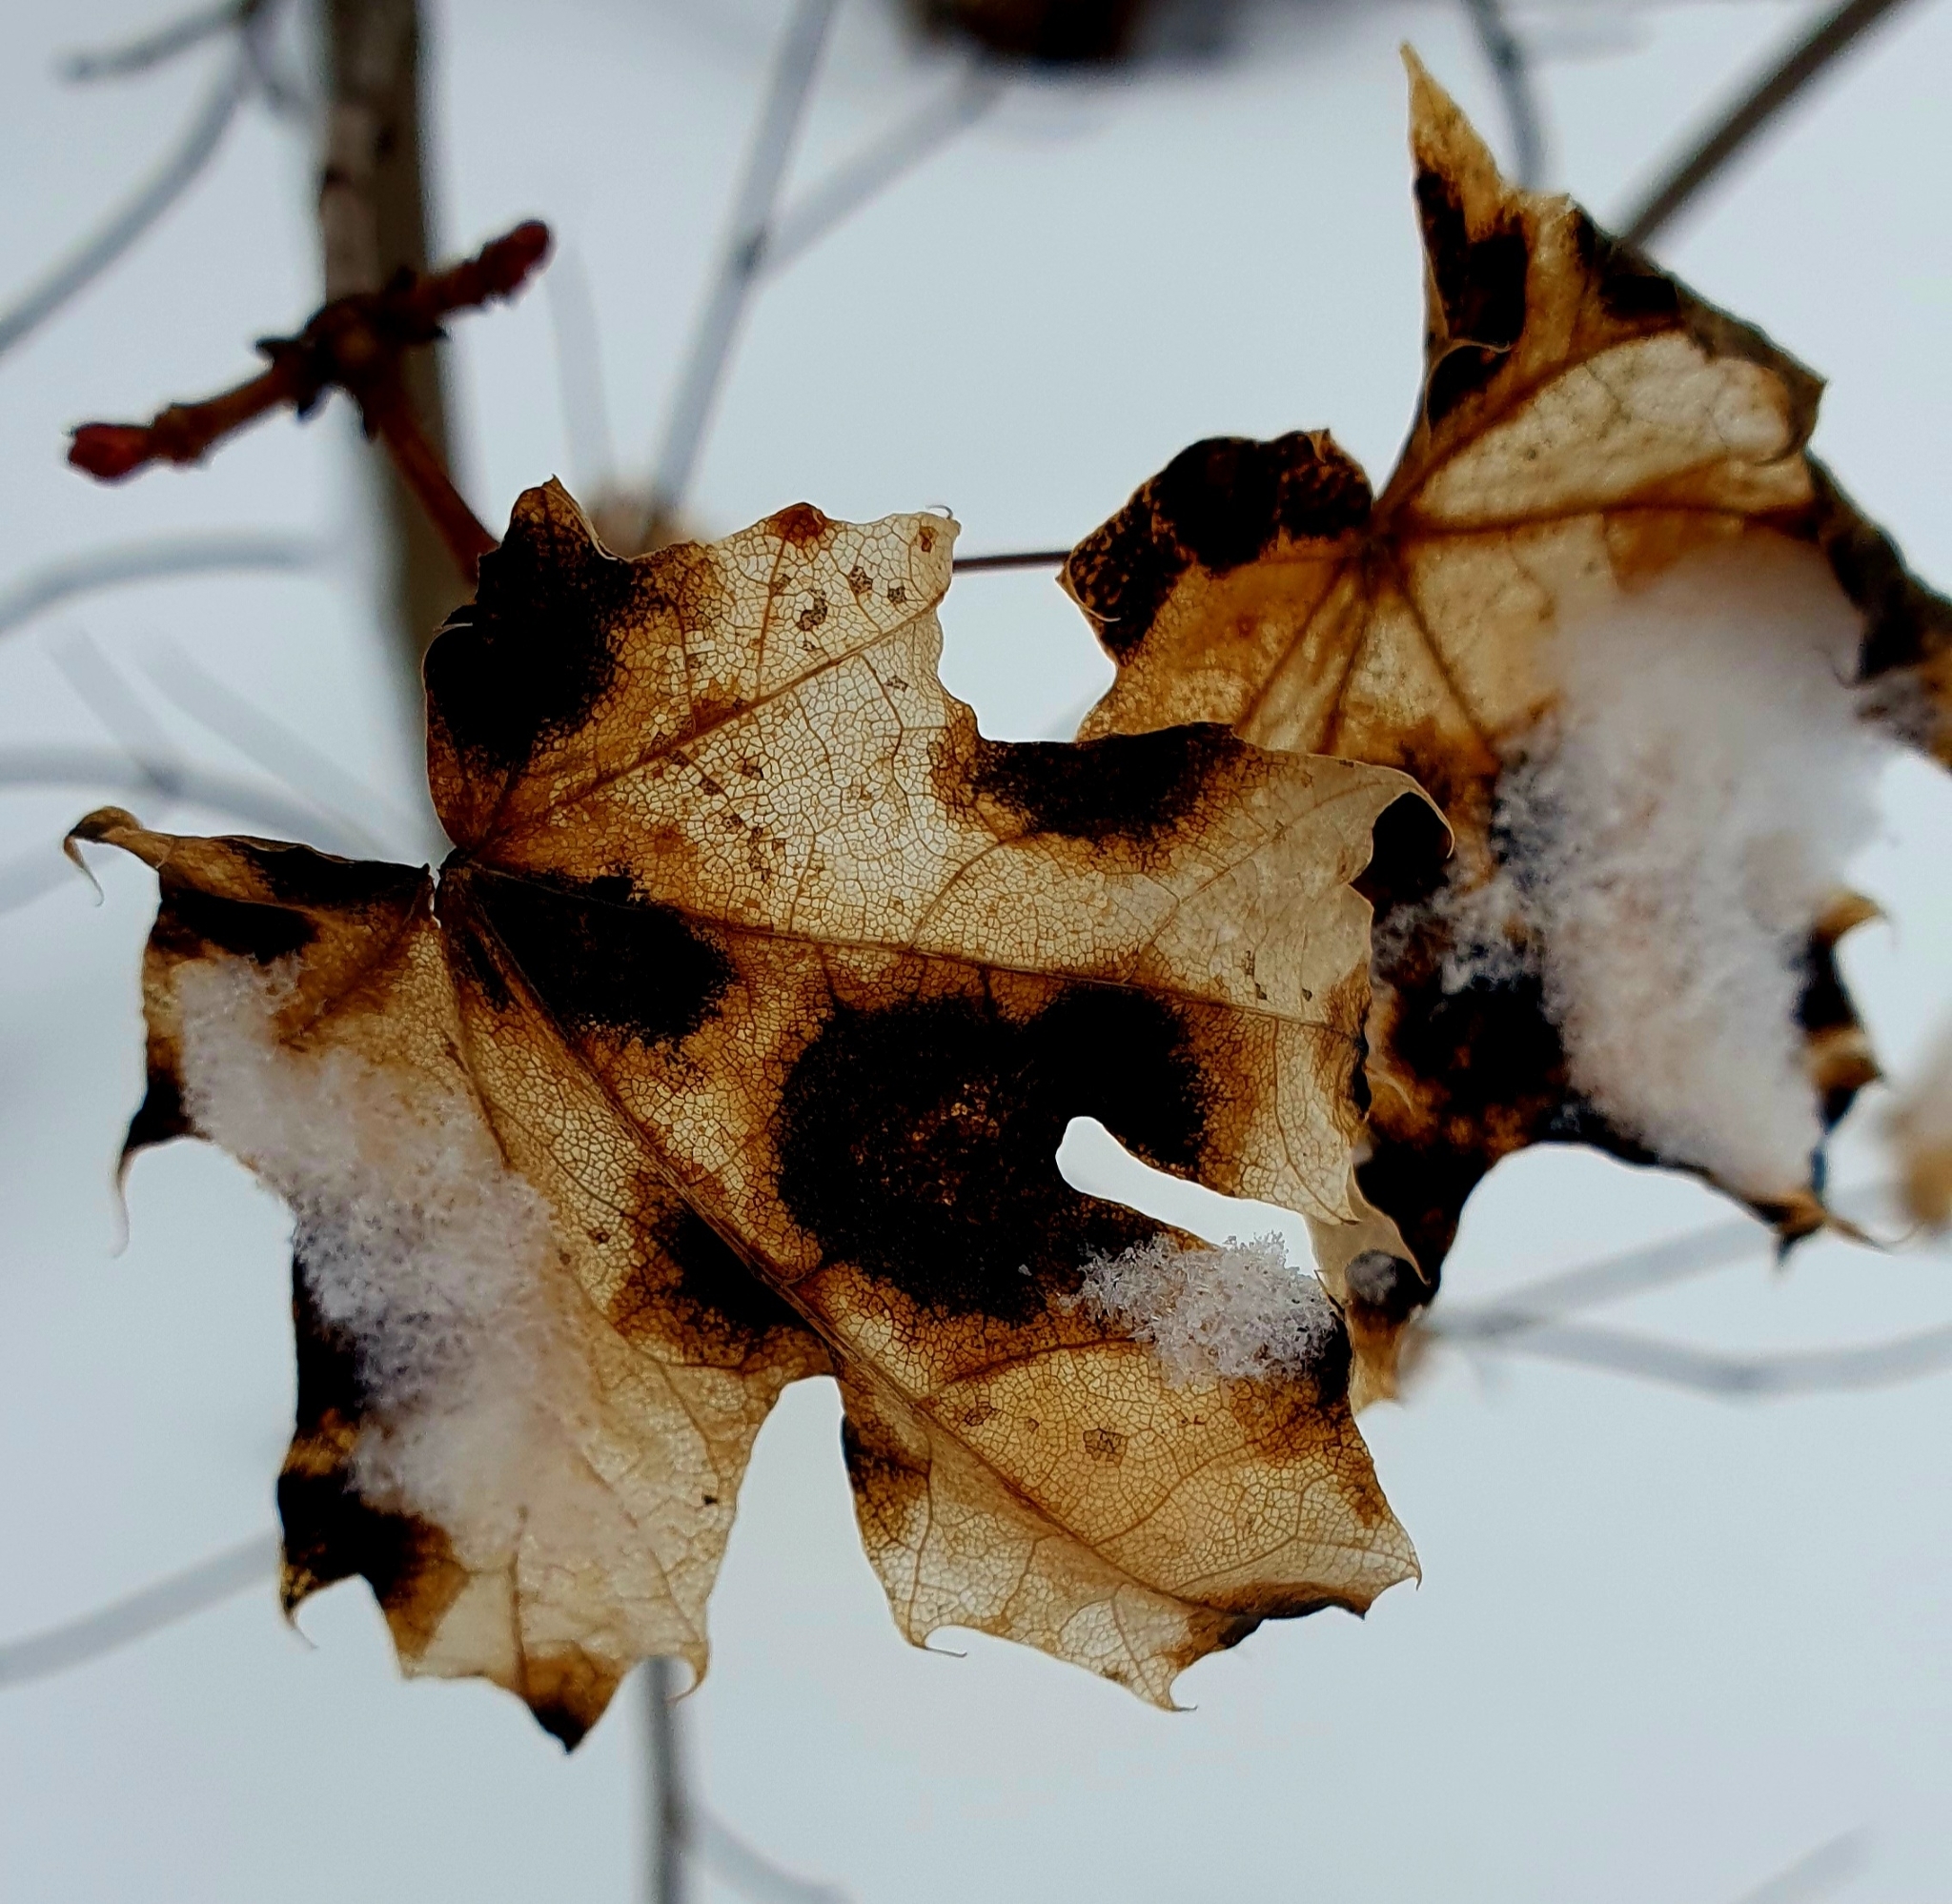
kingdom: Fungi
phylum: Ascomycota
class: Leotiomycetes
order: Rhytismatales
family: Rhytismataceae
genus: Rhytisma
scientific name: Rhytisma acerinum
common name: European tar spot
